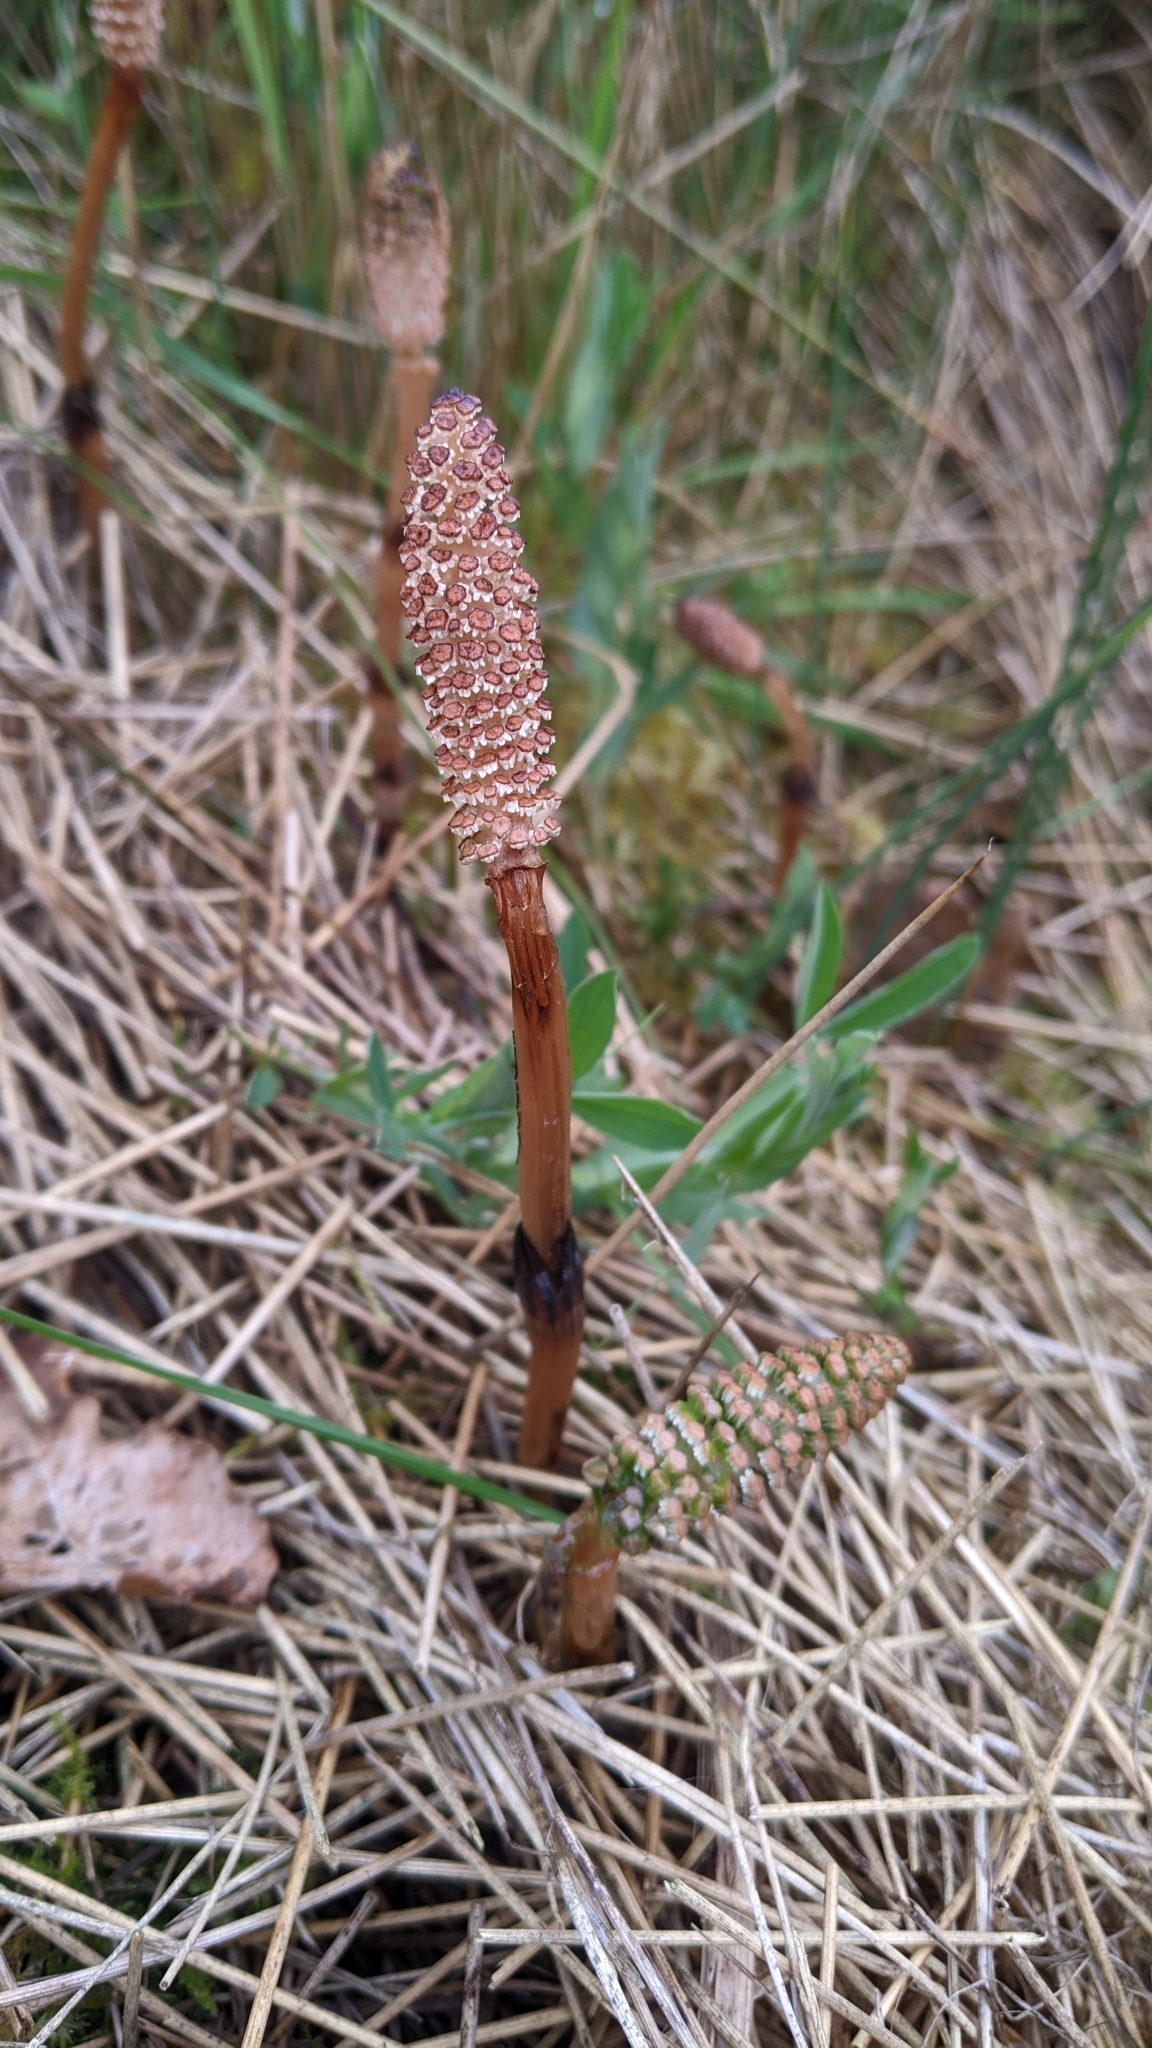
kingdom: Plantae
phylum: Tracheophyta
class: Polypodiopsida
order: Equisetales
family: Equisetaceae
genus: Equisetum
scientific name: Equisetum arvense
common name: Field horsetail
